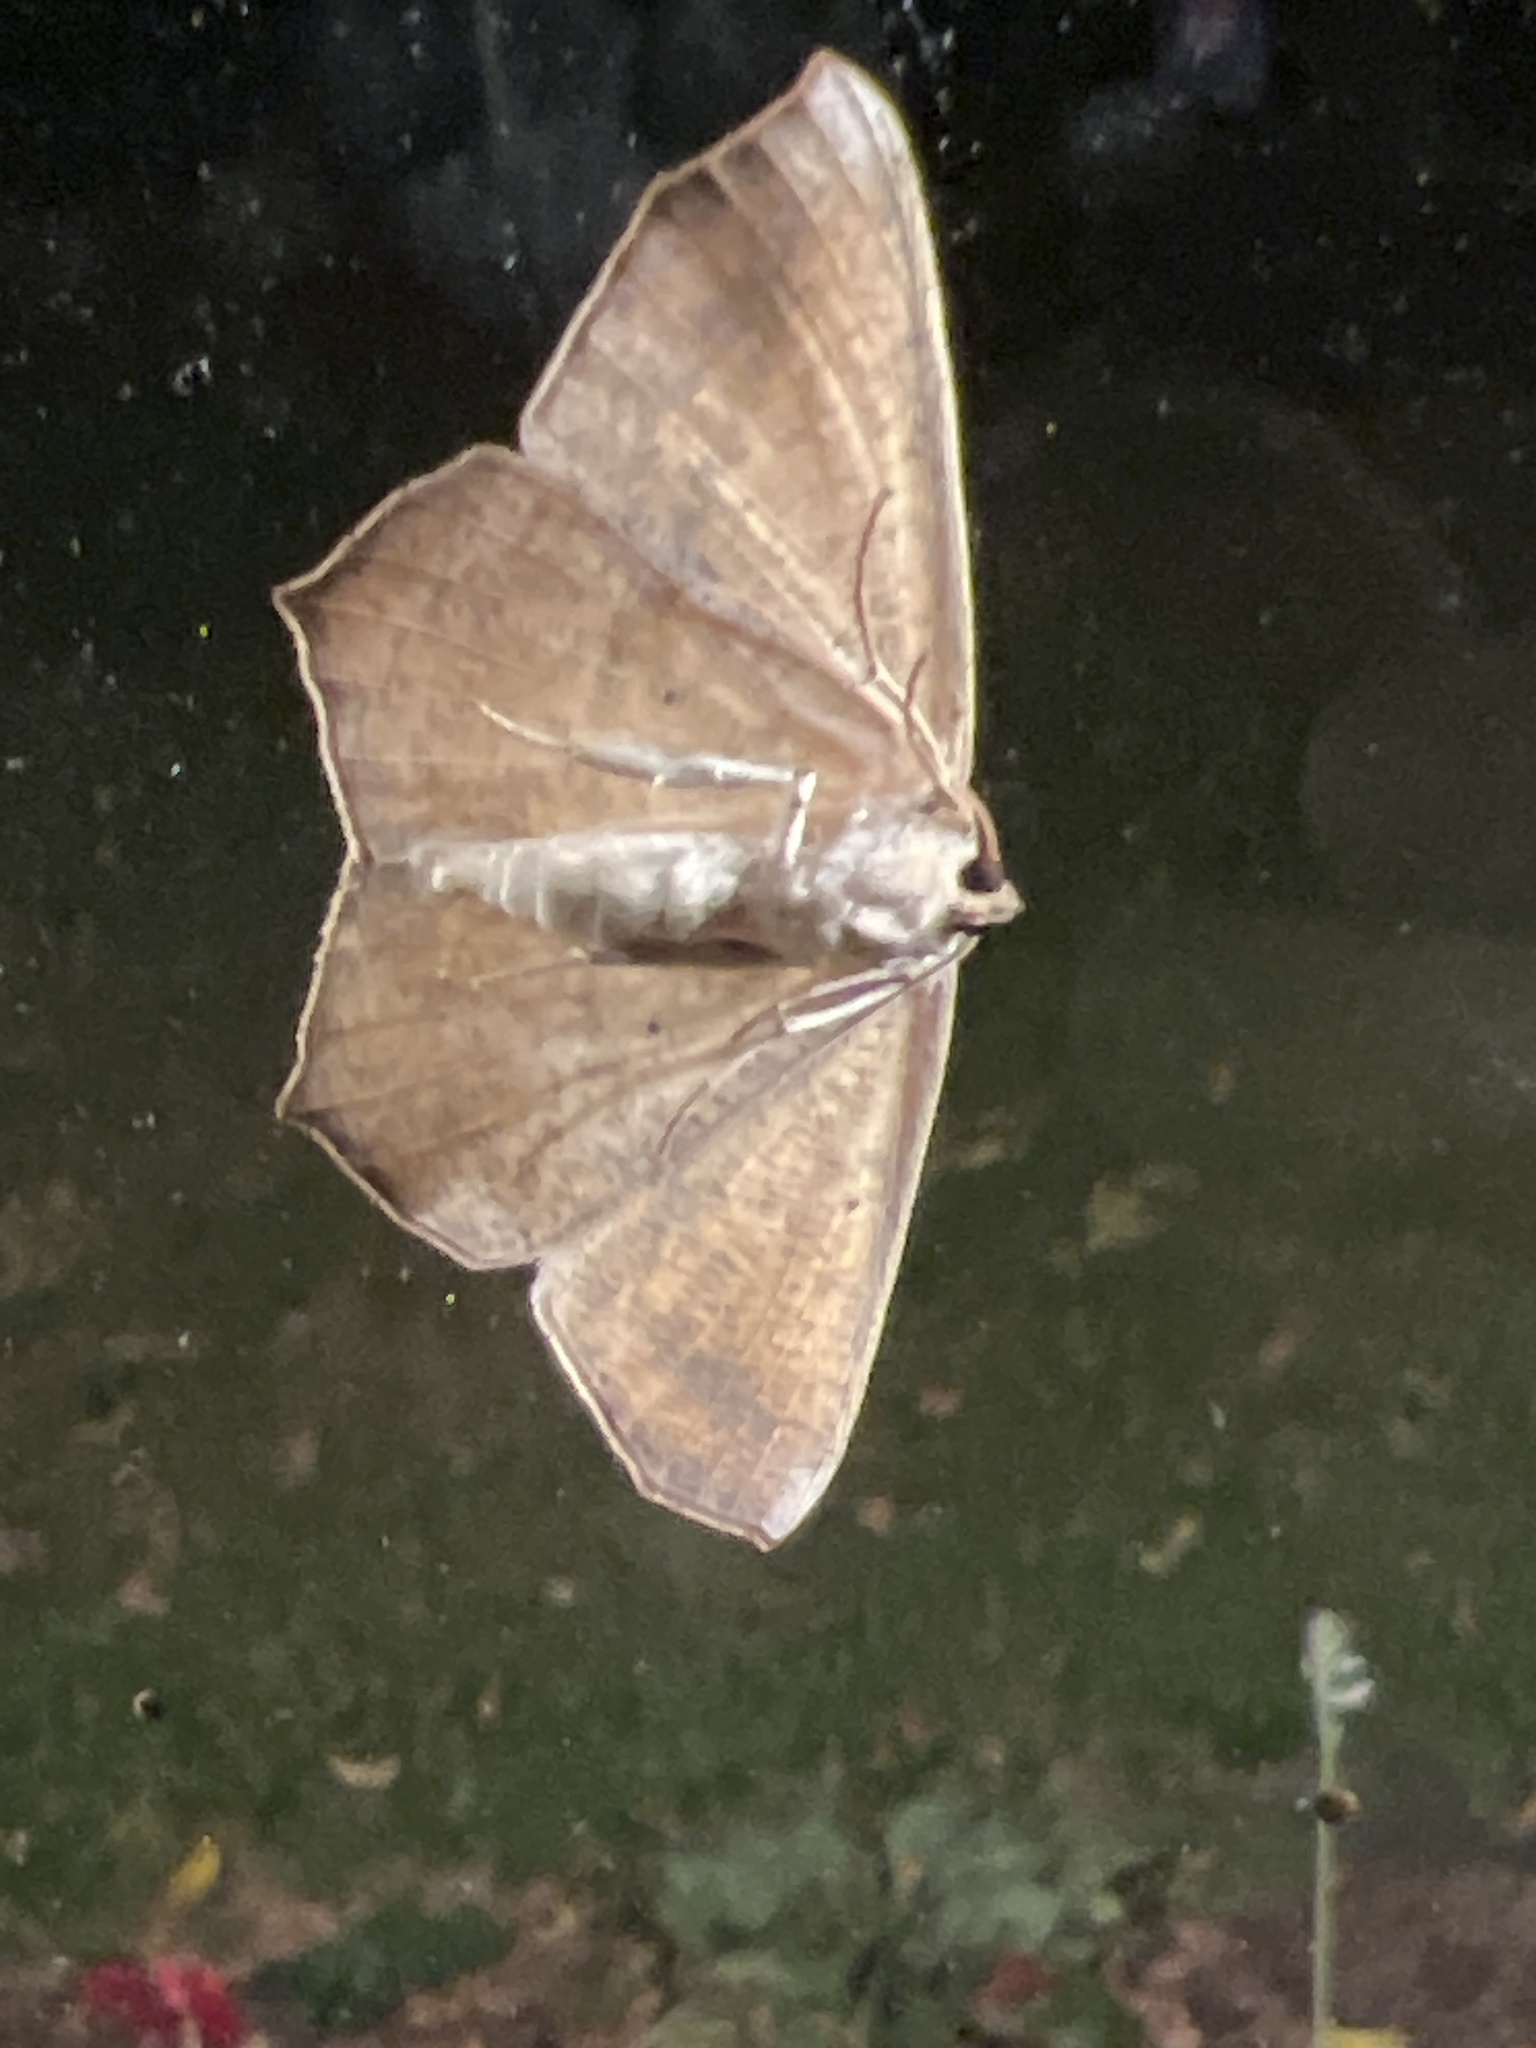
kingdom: Animalia
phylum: Arthropoda
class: Insecta
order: Lepidoptera
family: Geometridae
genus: Prochoerodes
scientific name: Prochoerodes lineola
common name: Large maple spanworm
